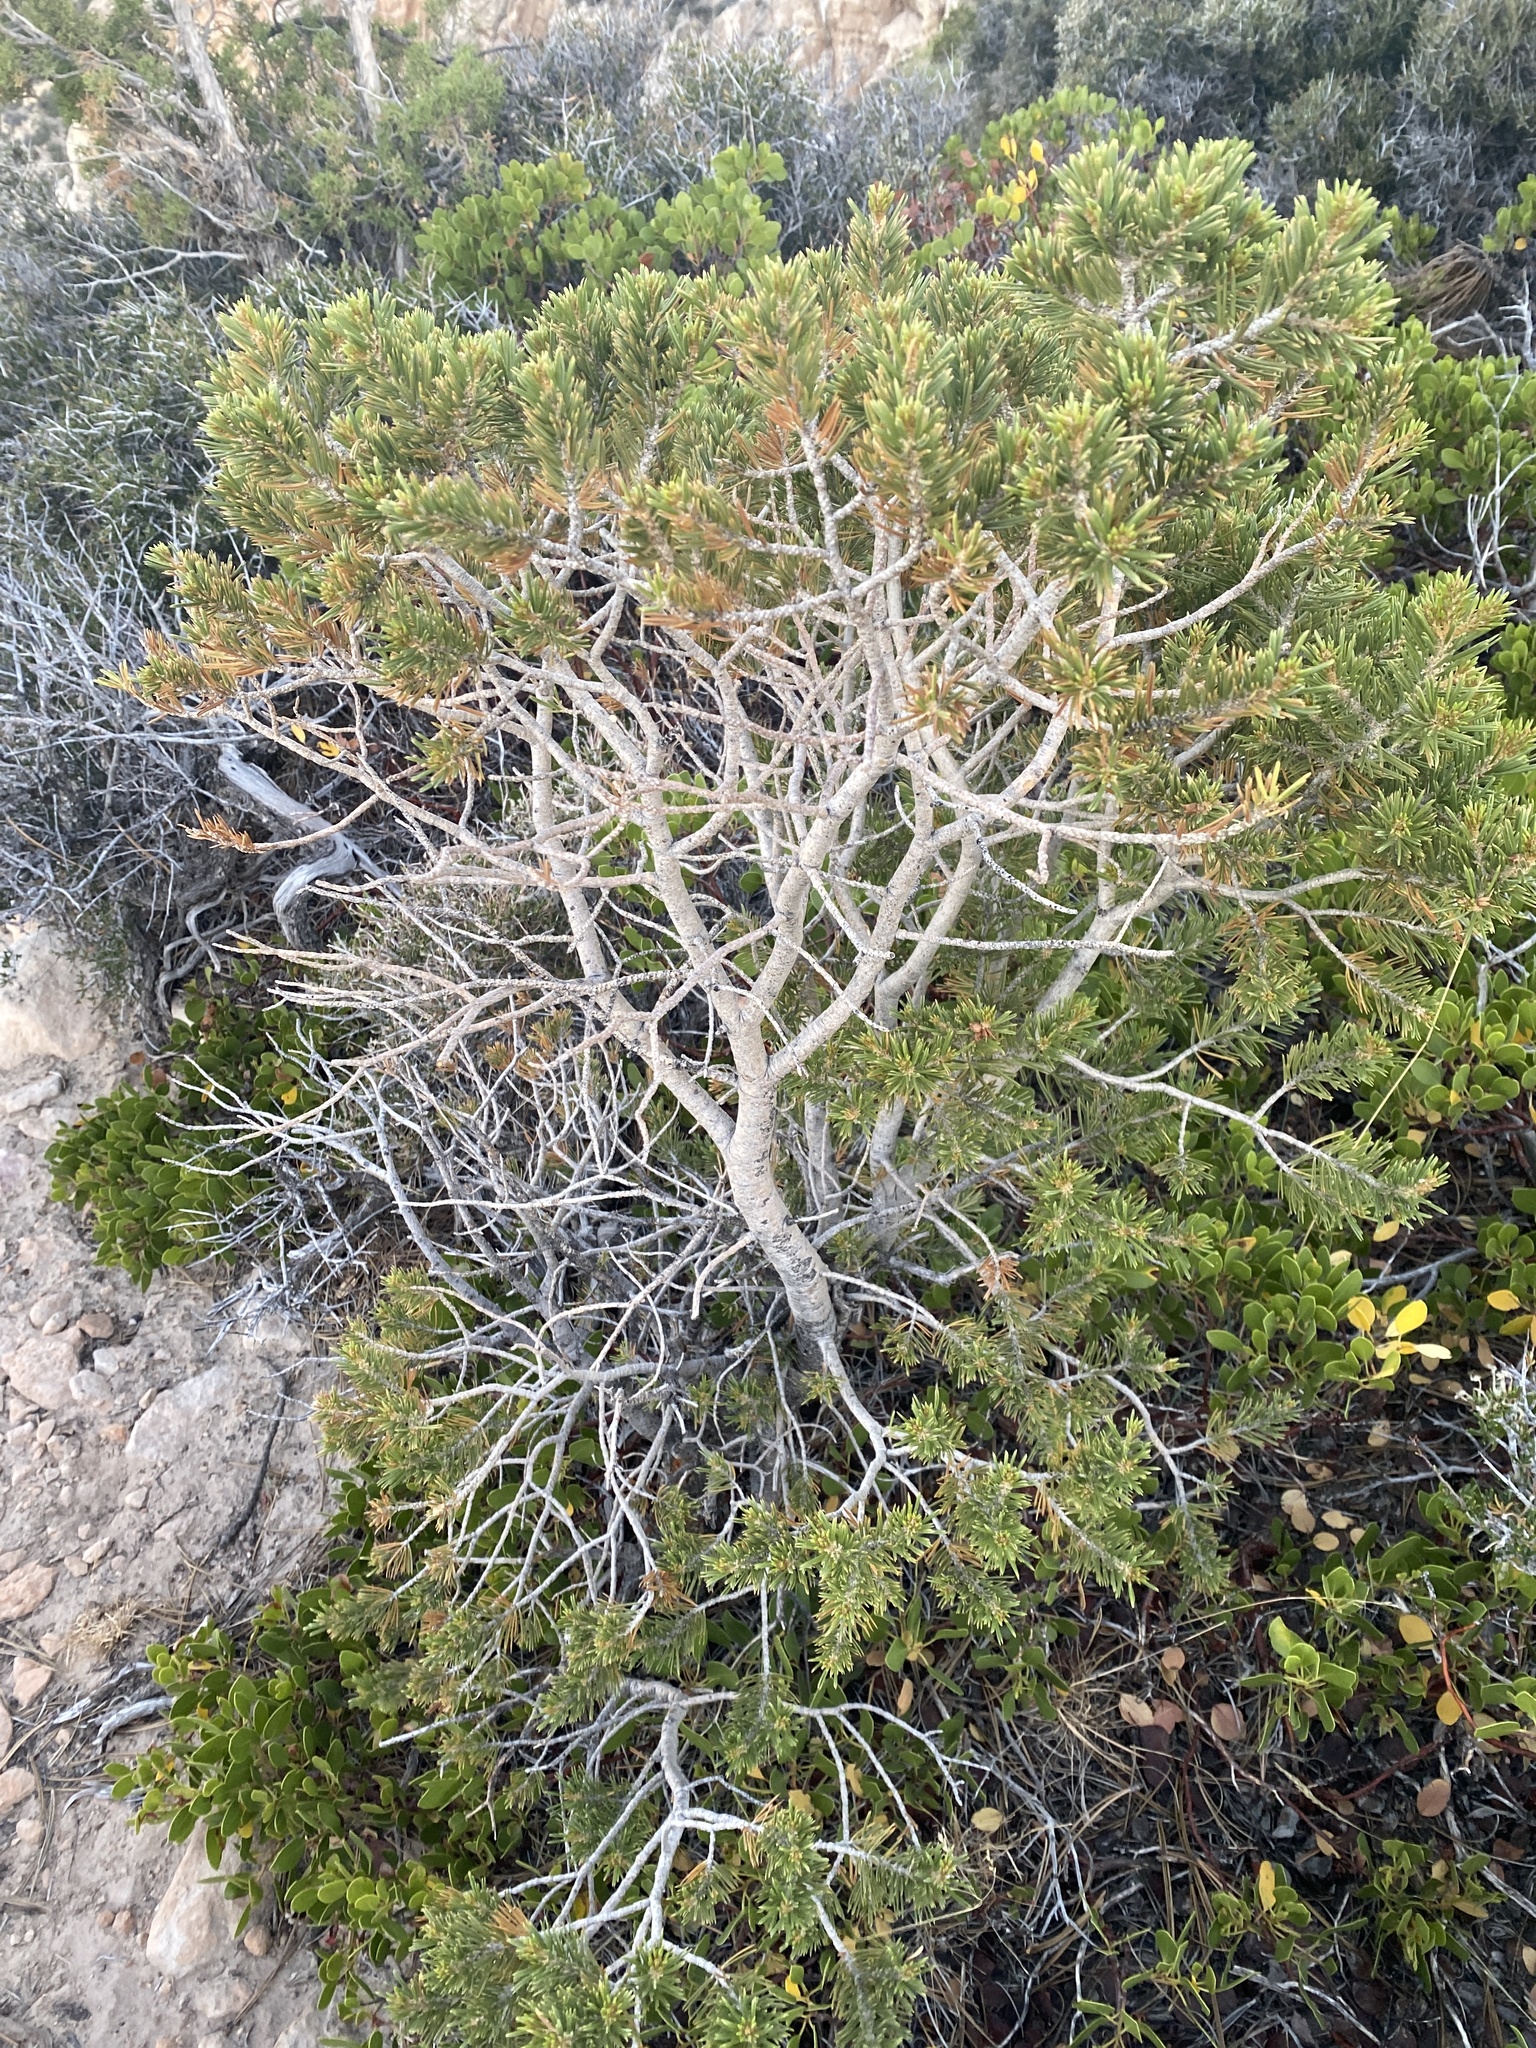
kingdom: Plantae
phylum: Tracheophyta
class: Pinopsida
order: Pinales
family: Pinaceae
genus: Pinus
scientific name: Pinus edulis
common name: Colorado pinyon
